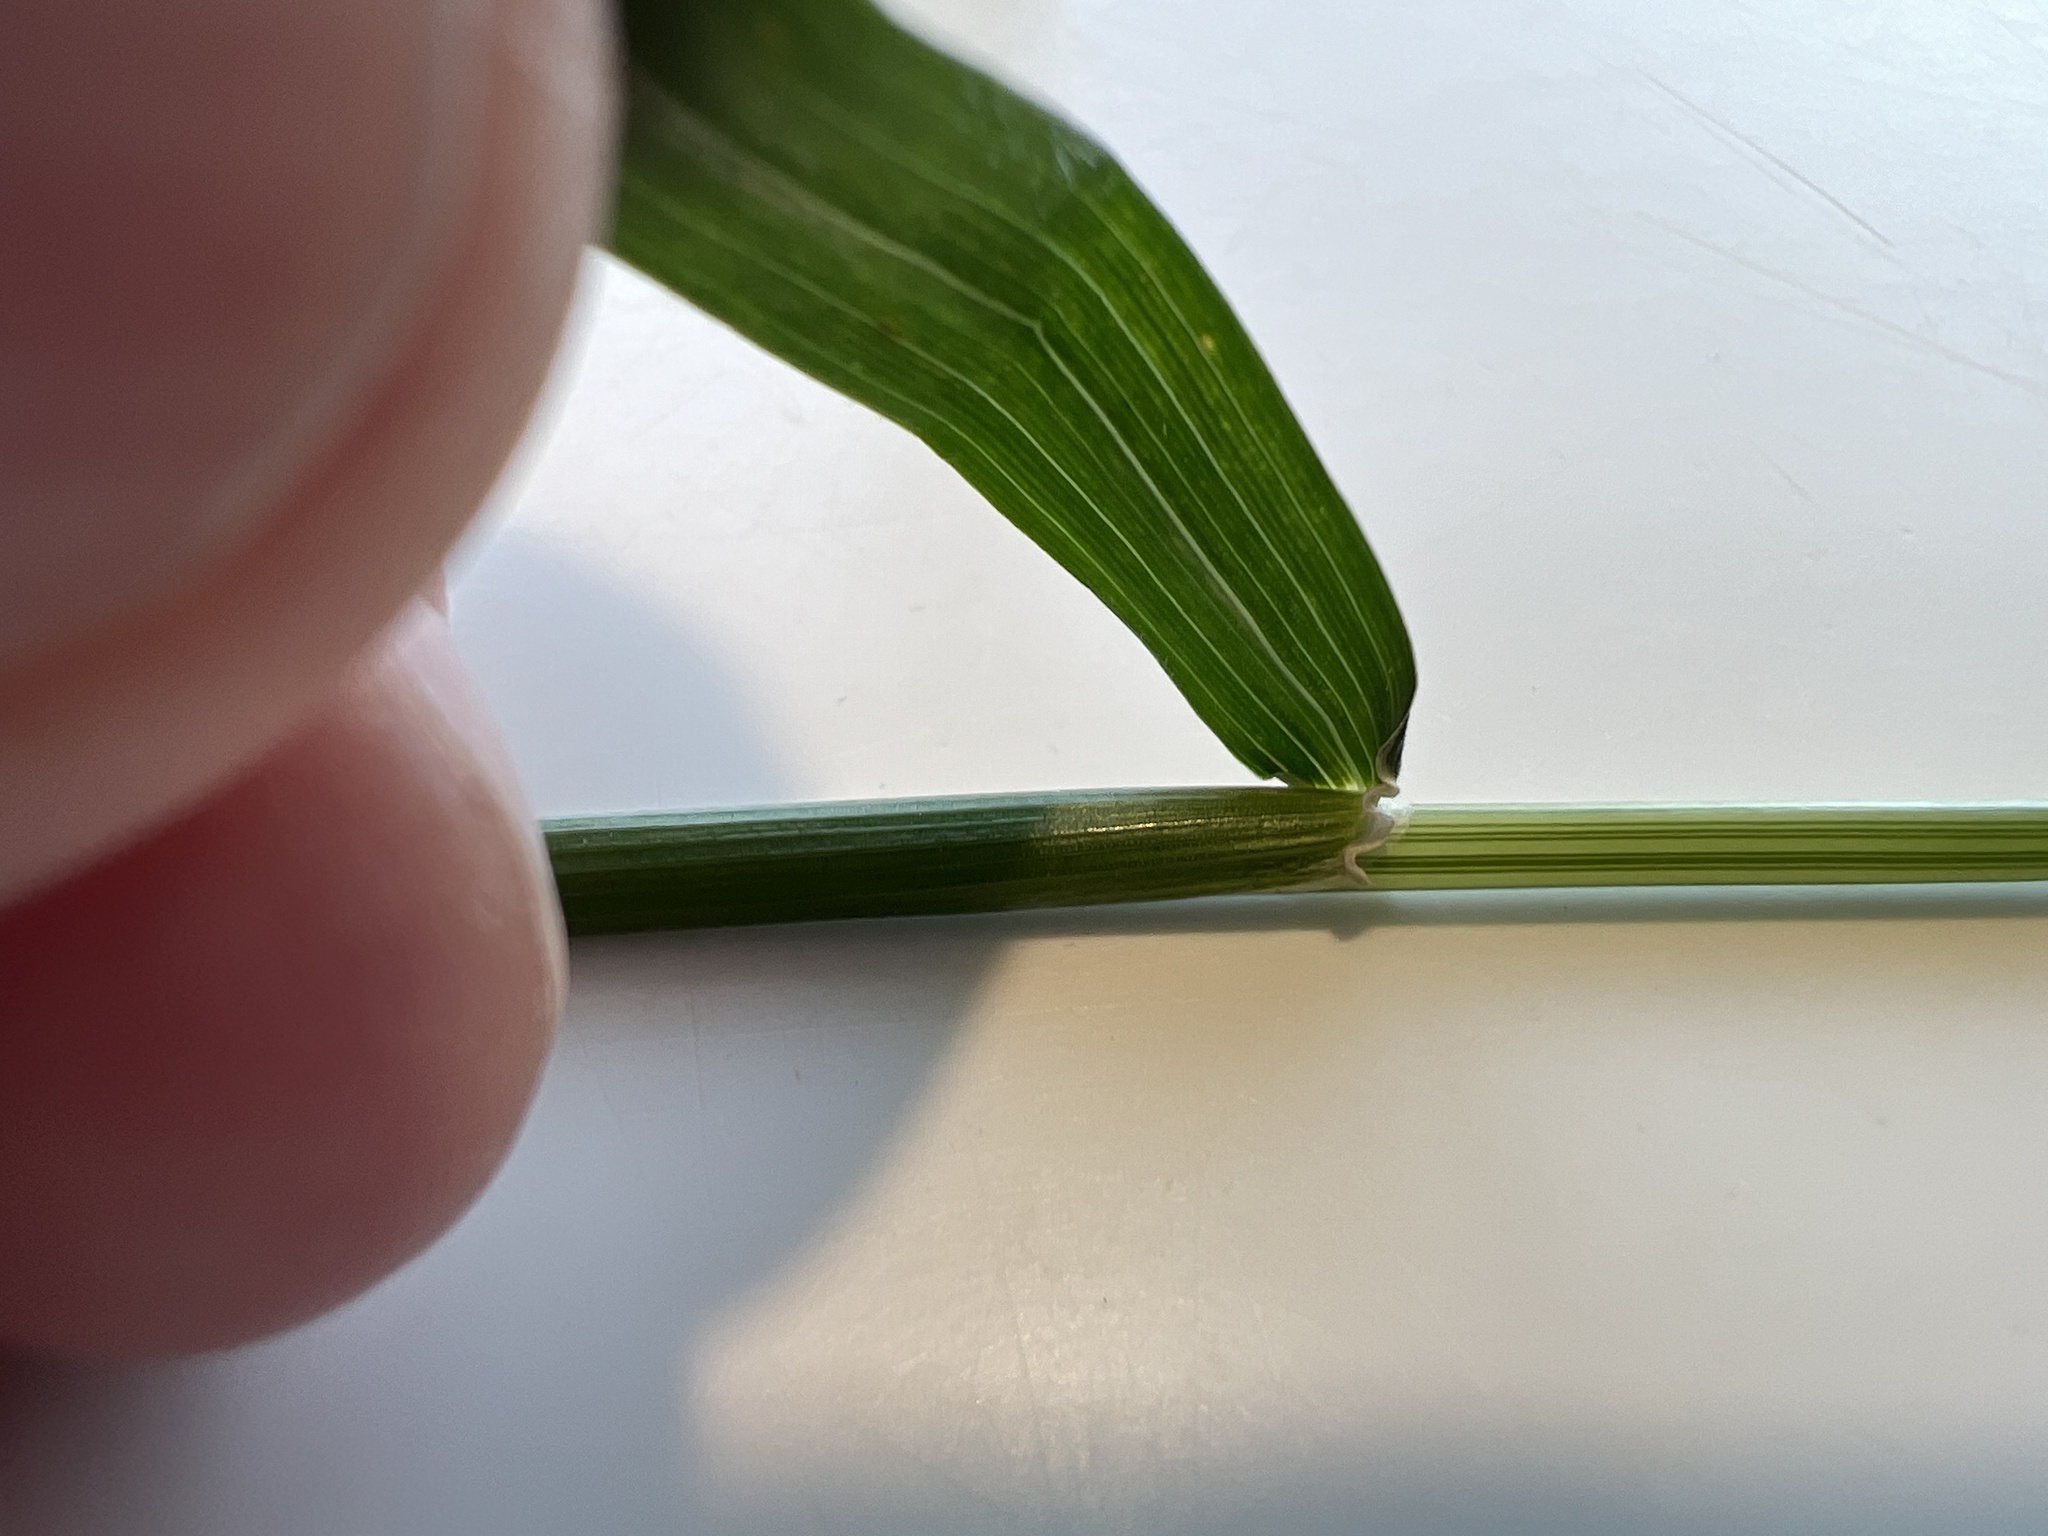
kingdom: Plantae
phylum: Tracheophyta
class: Liliopsida
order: Poales
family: Poaceae
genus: Hordeum
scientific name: Hordeum murinum
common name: Wall barley
